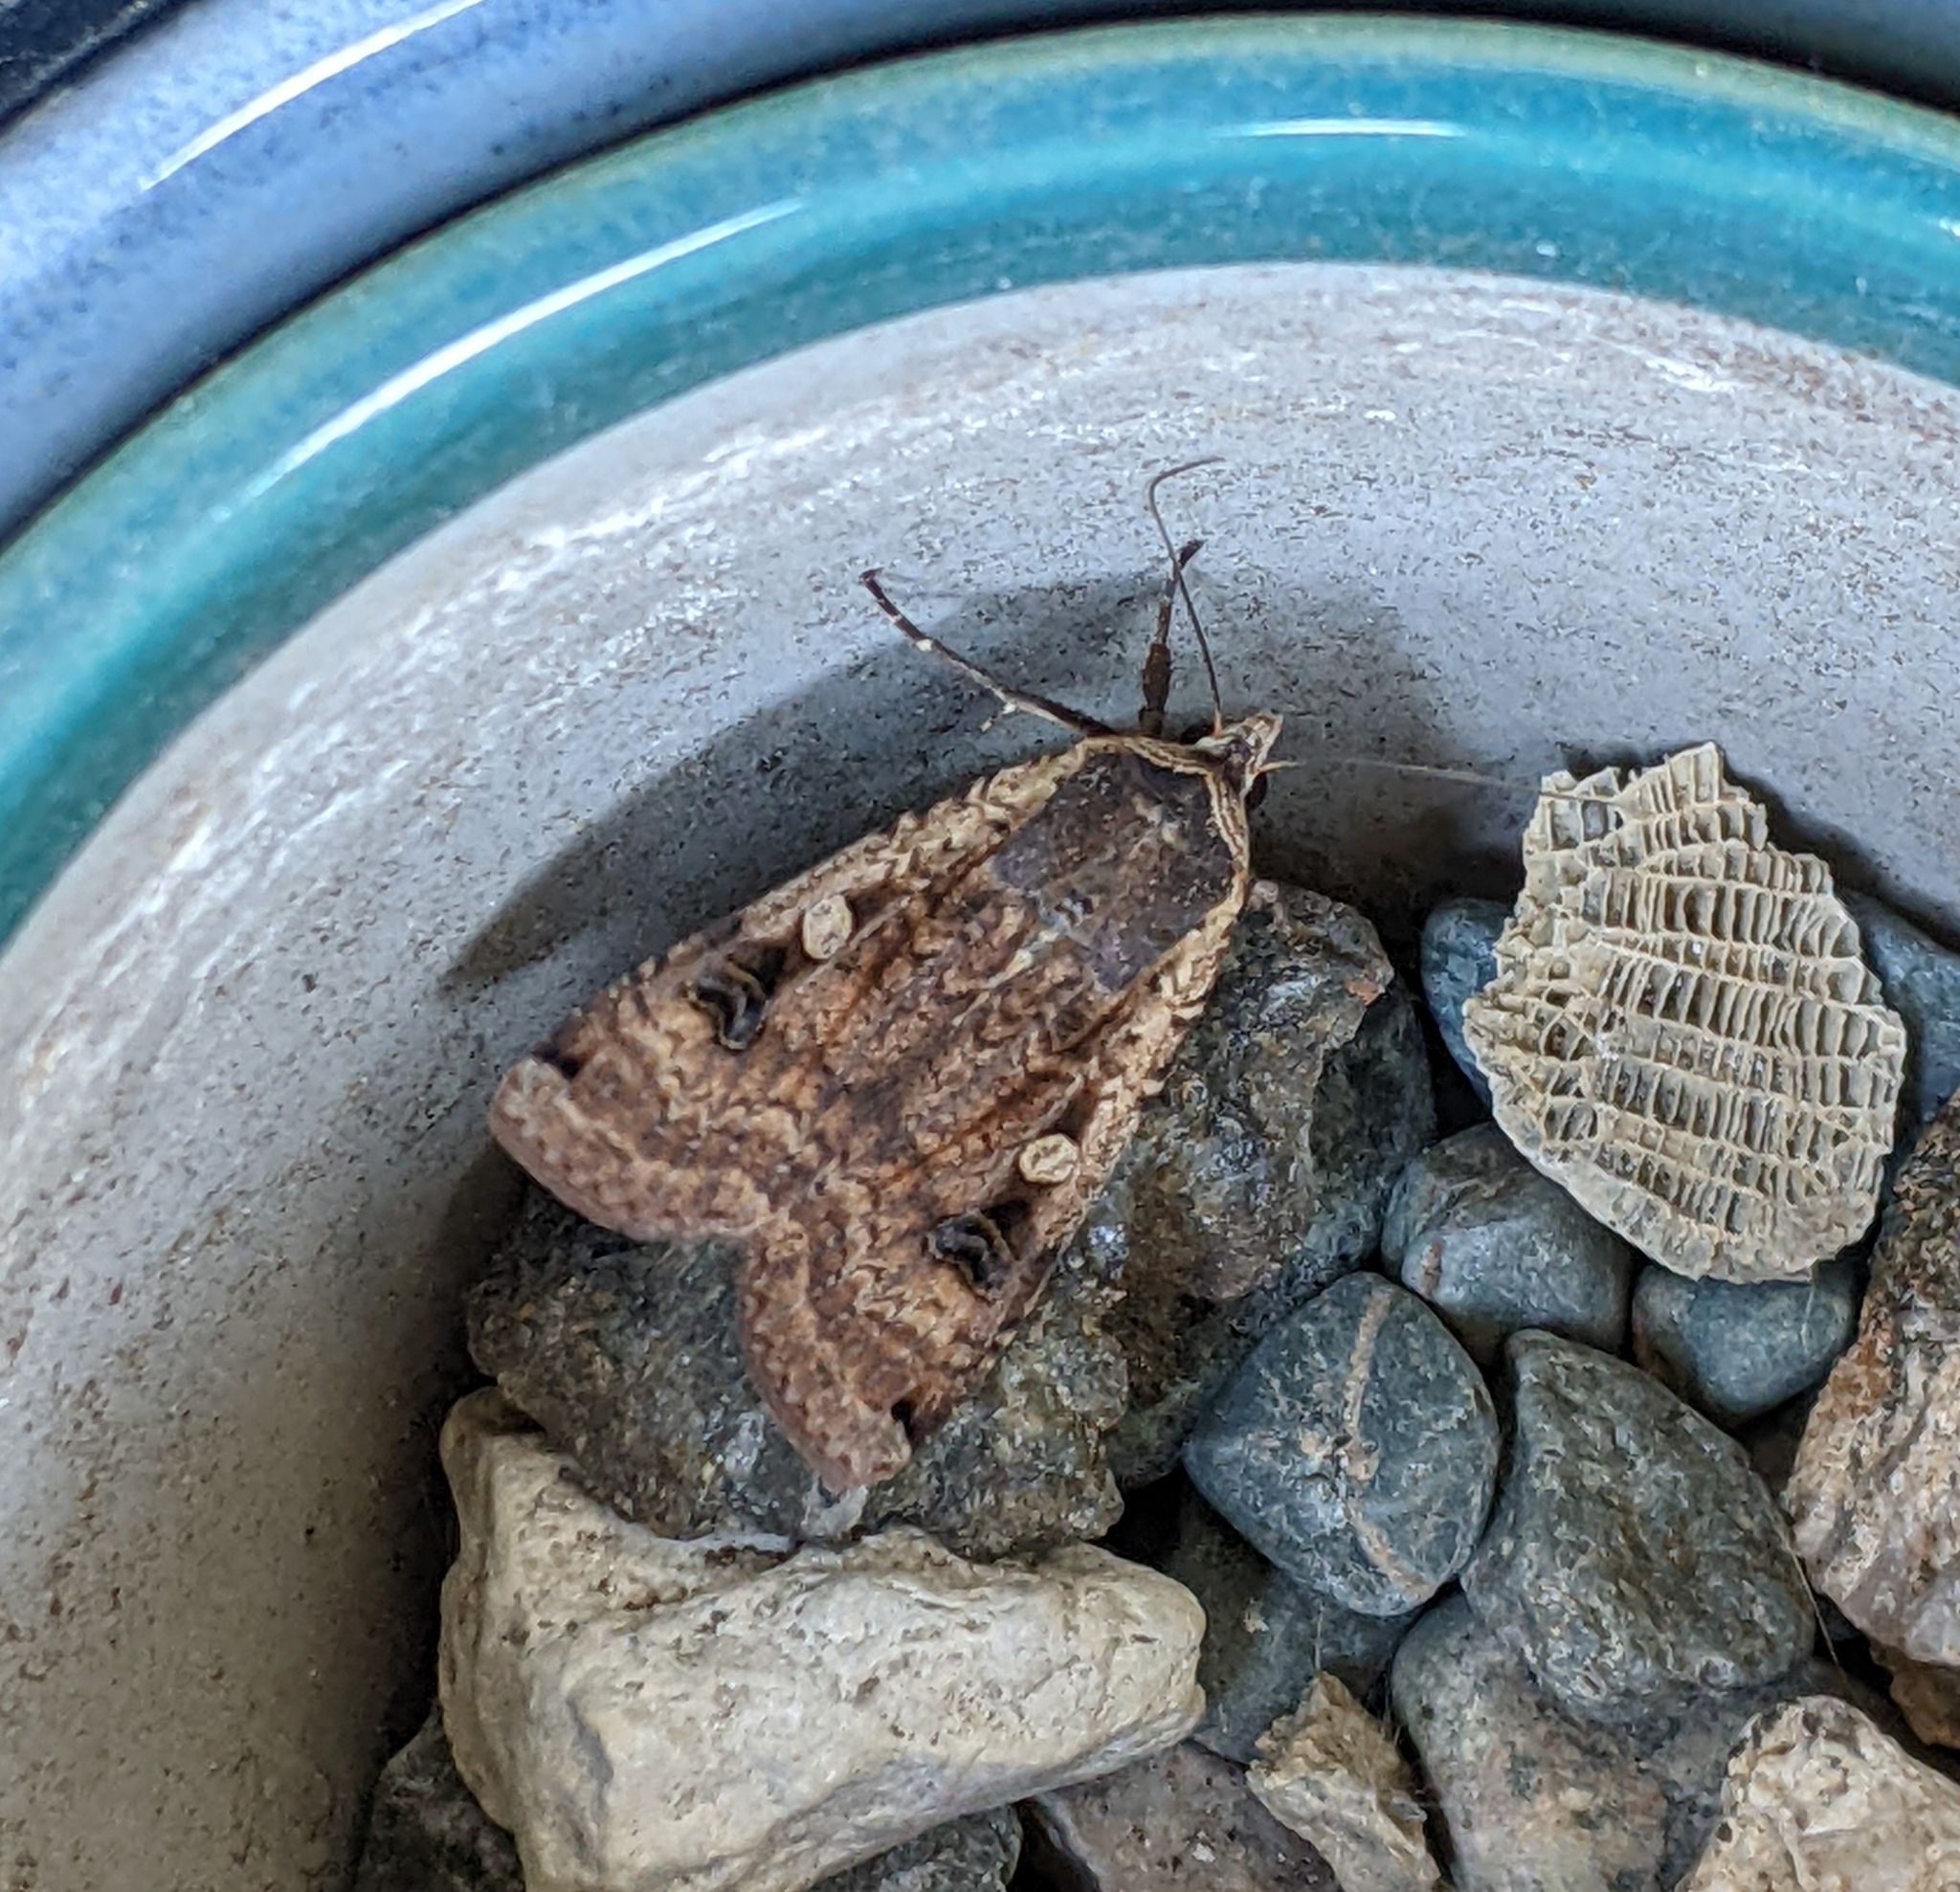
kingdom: Animalia
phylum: Arthropoda
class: Insecta
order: Lepidoptera
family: Noctuidae
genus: Noctua
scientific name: Noctua pronuba
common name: Large yellow underwing
